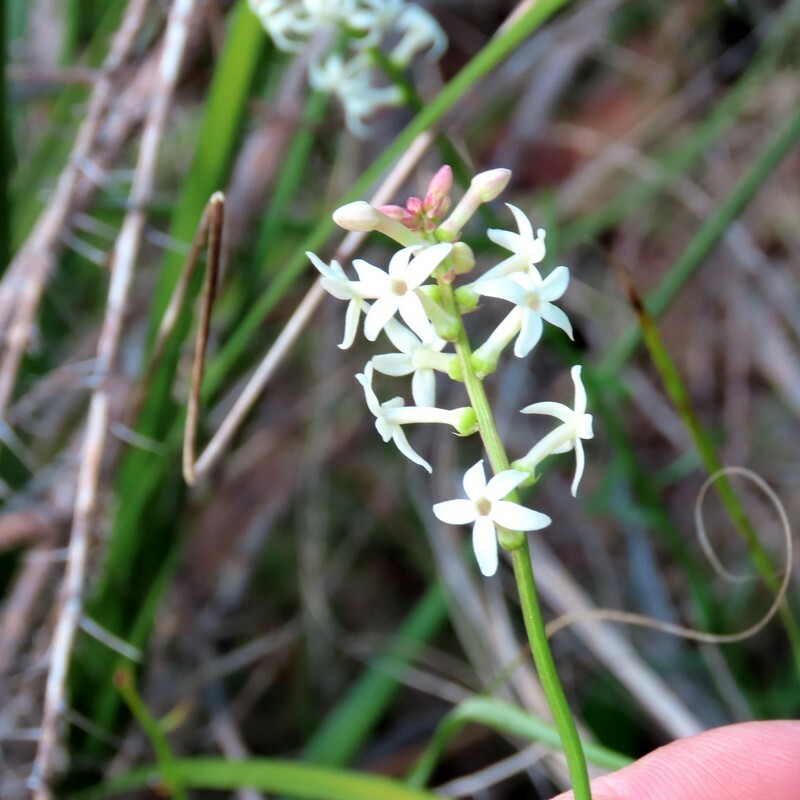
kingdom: Plantae
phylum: Tracheophyta
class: Magnoliopsida
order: Celastrales
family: Celastraceae
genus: Stackhousia
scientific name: Stackhousia monogyna
